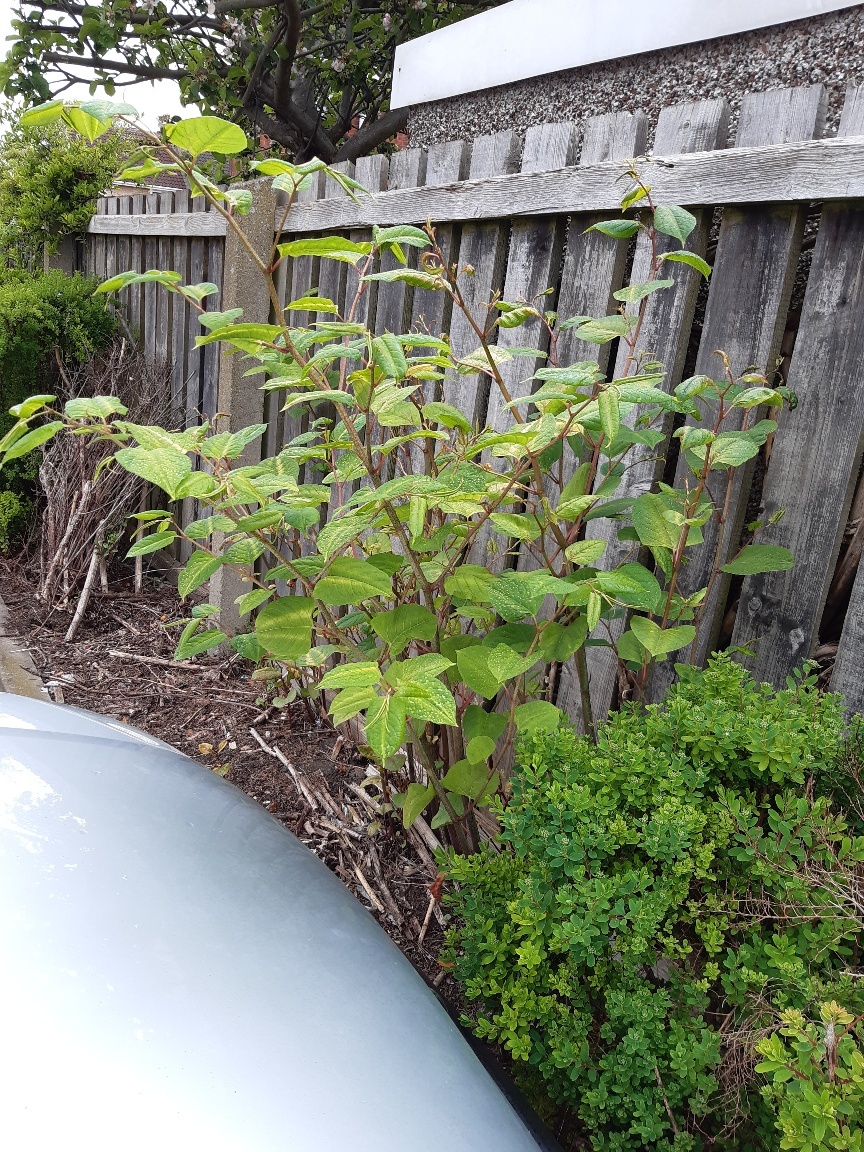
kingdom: Plantae
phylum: Tracheophyta
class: Magnoliopsida
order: Caryophyllales
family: Polygonaceae
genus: Reynoutria
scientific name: Reynoutria japonica
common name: Japanese knotweed
